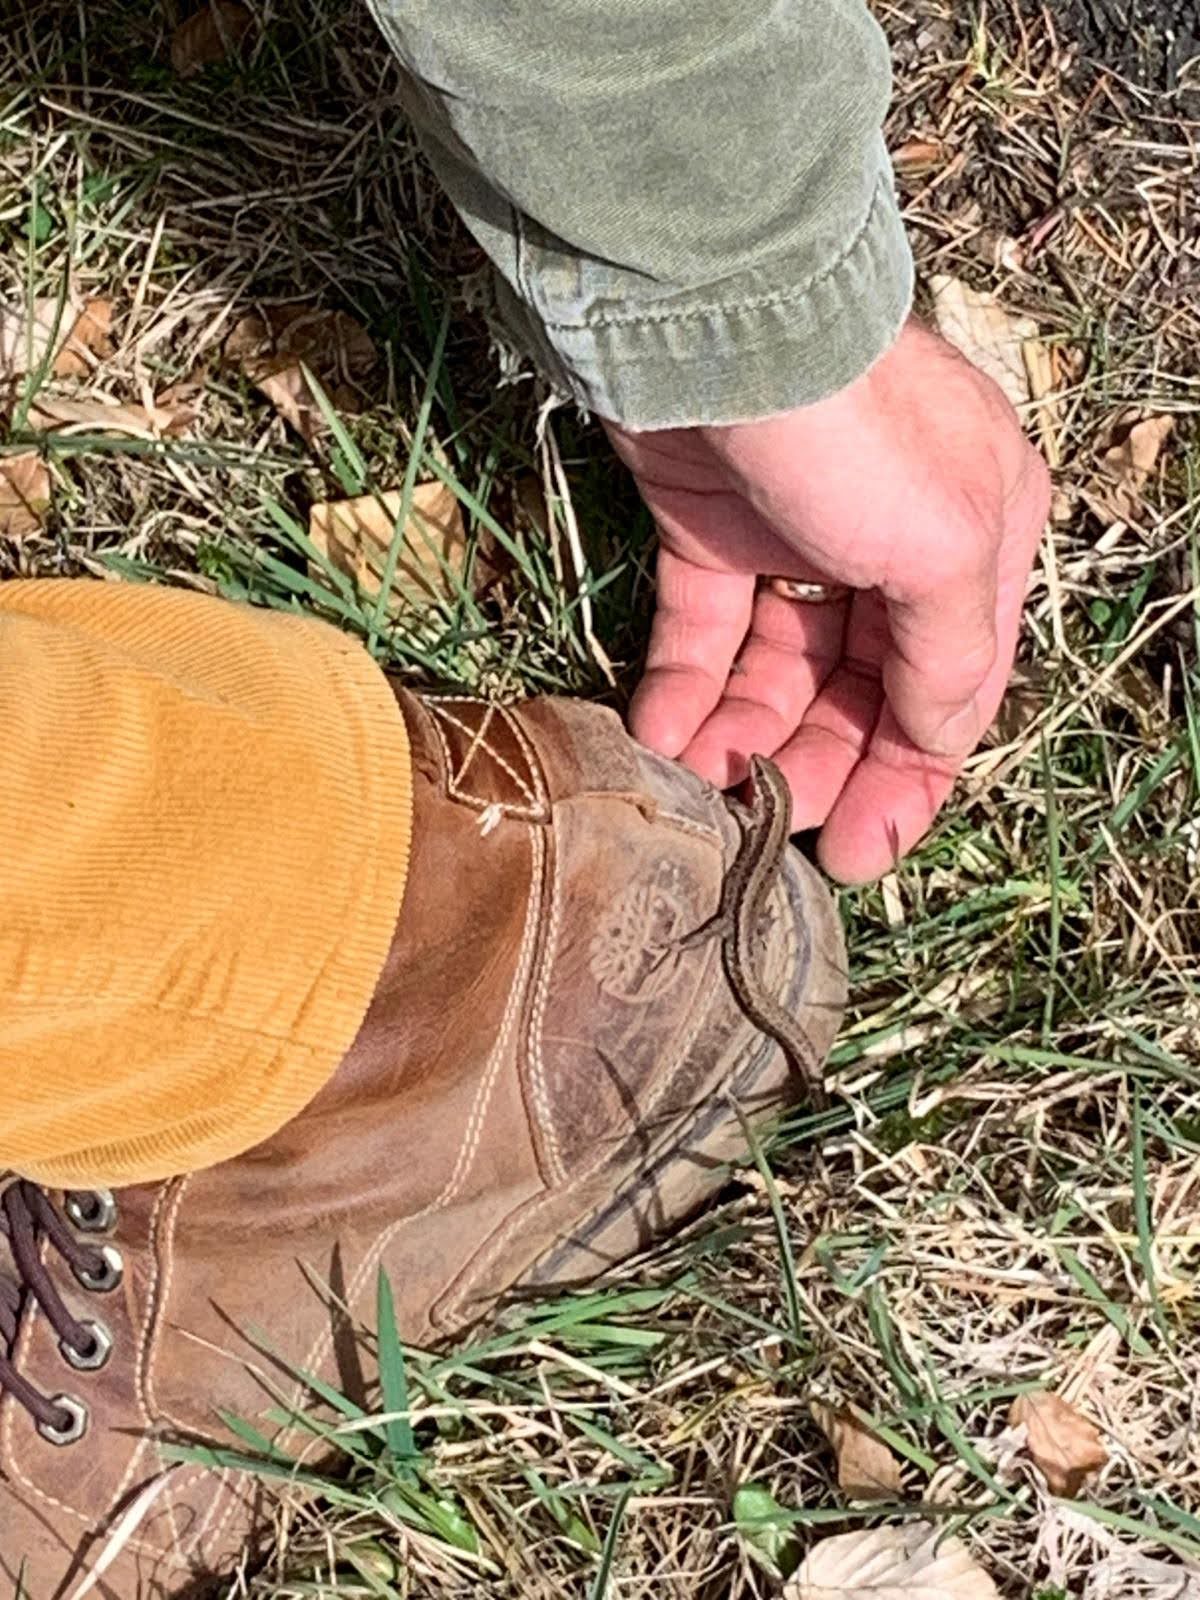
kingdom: Animalia
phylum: Chordata
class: Squamata
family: Lacertidae
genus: Zootoca
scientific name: Zootoca vivipara
